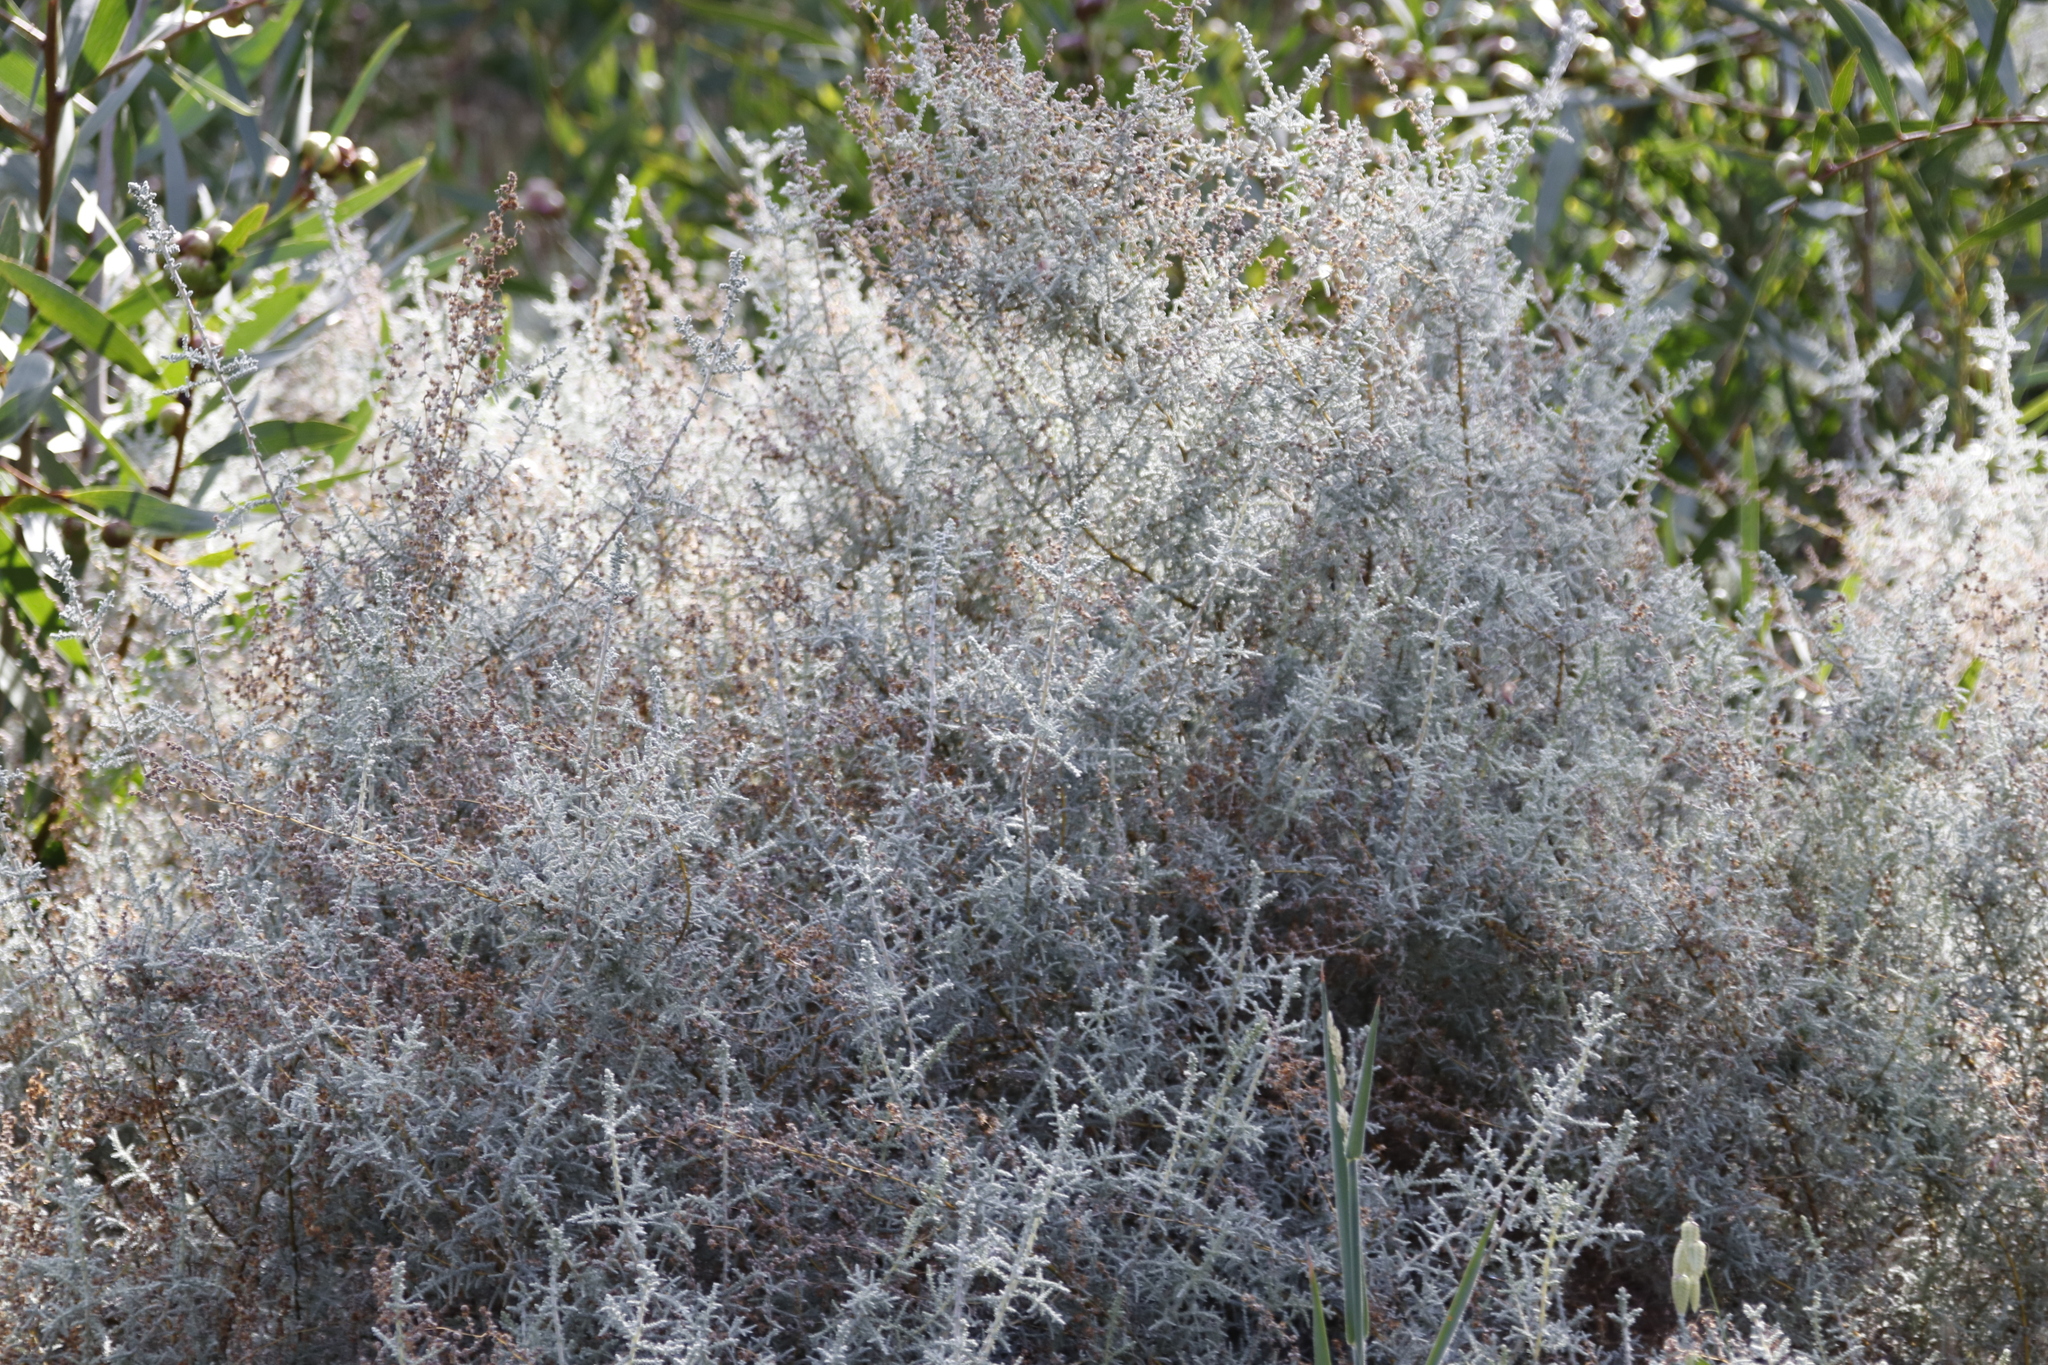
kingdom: Plantae
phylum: Tracheophyta
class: Magnoliopsida
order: Asterales
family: Asteraceae
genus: Seriphium
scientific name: Seriphium plumosum
